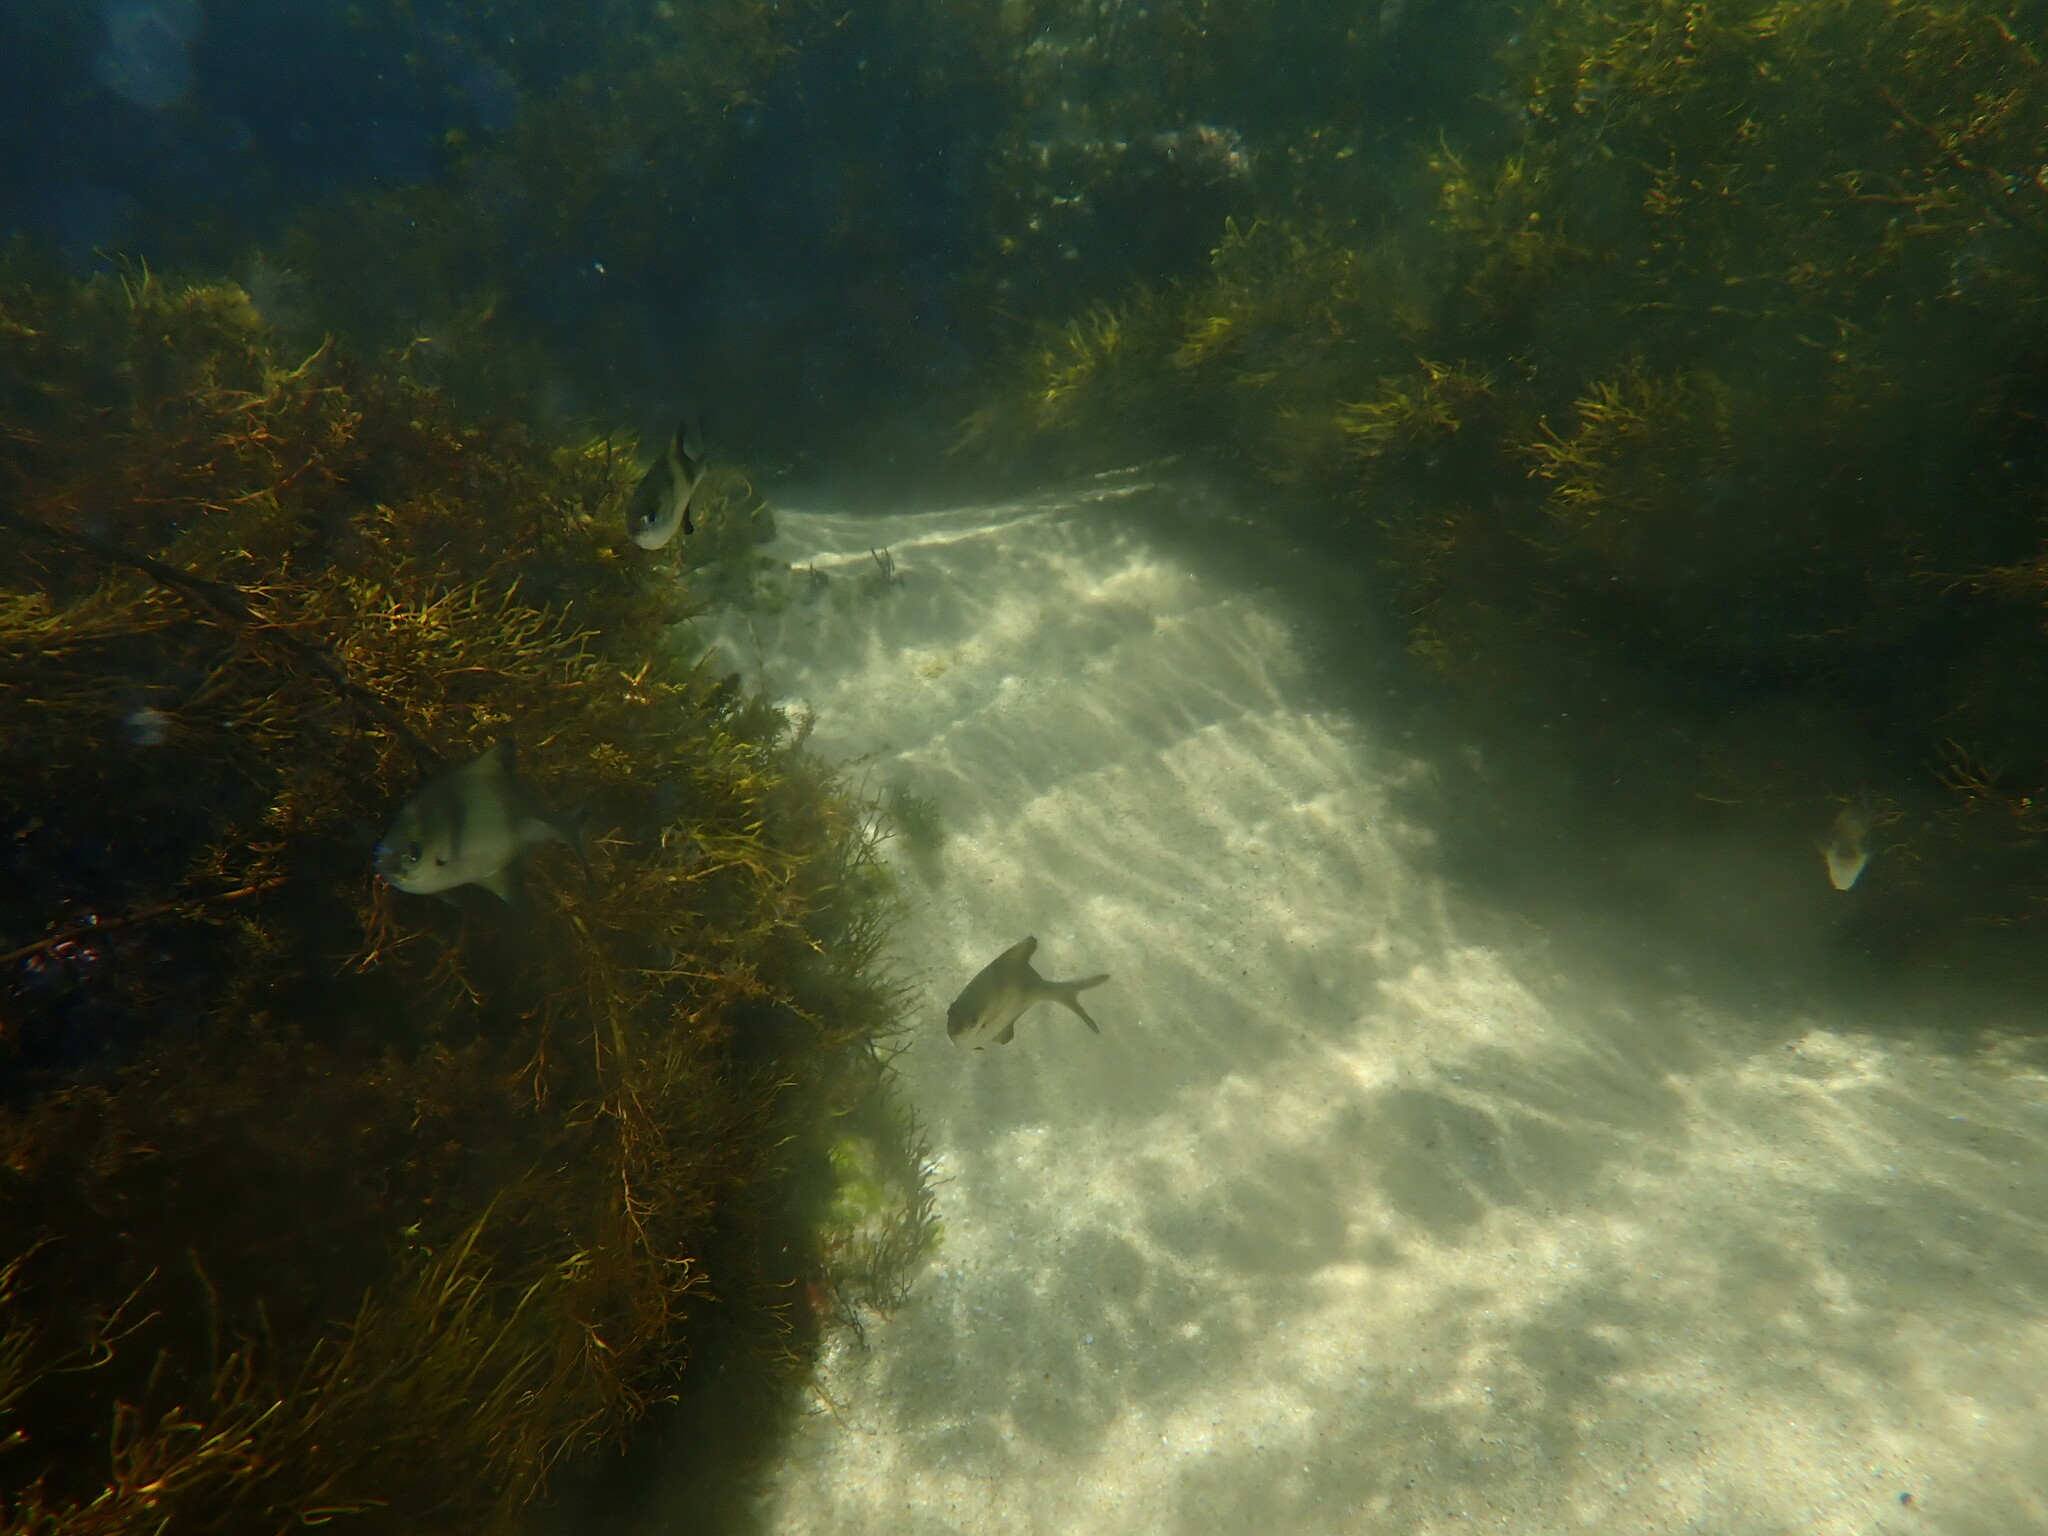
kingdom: Animalia
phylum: Chordata
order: Perciformes
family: Kyphosidae
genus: Scorpis
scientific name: Scorpis aequipinnis
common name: Sea sweep
